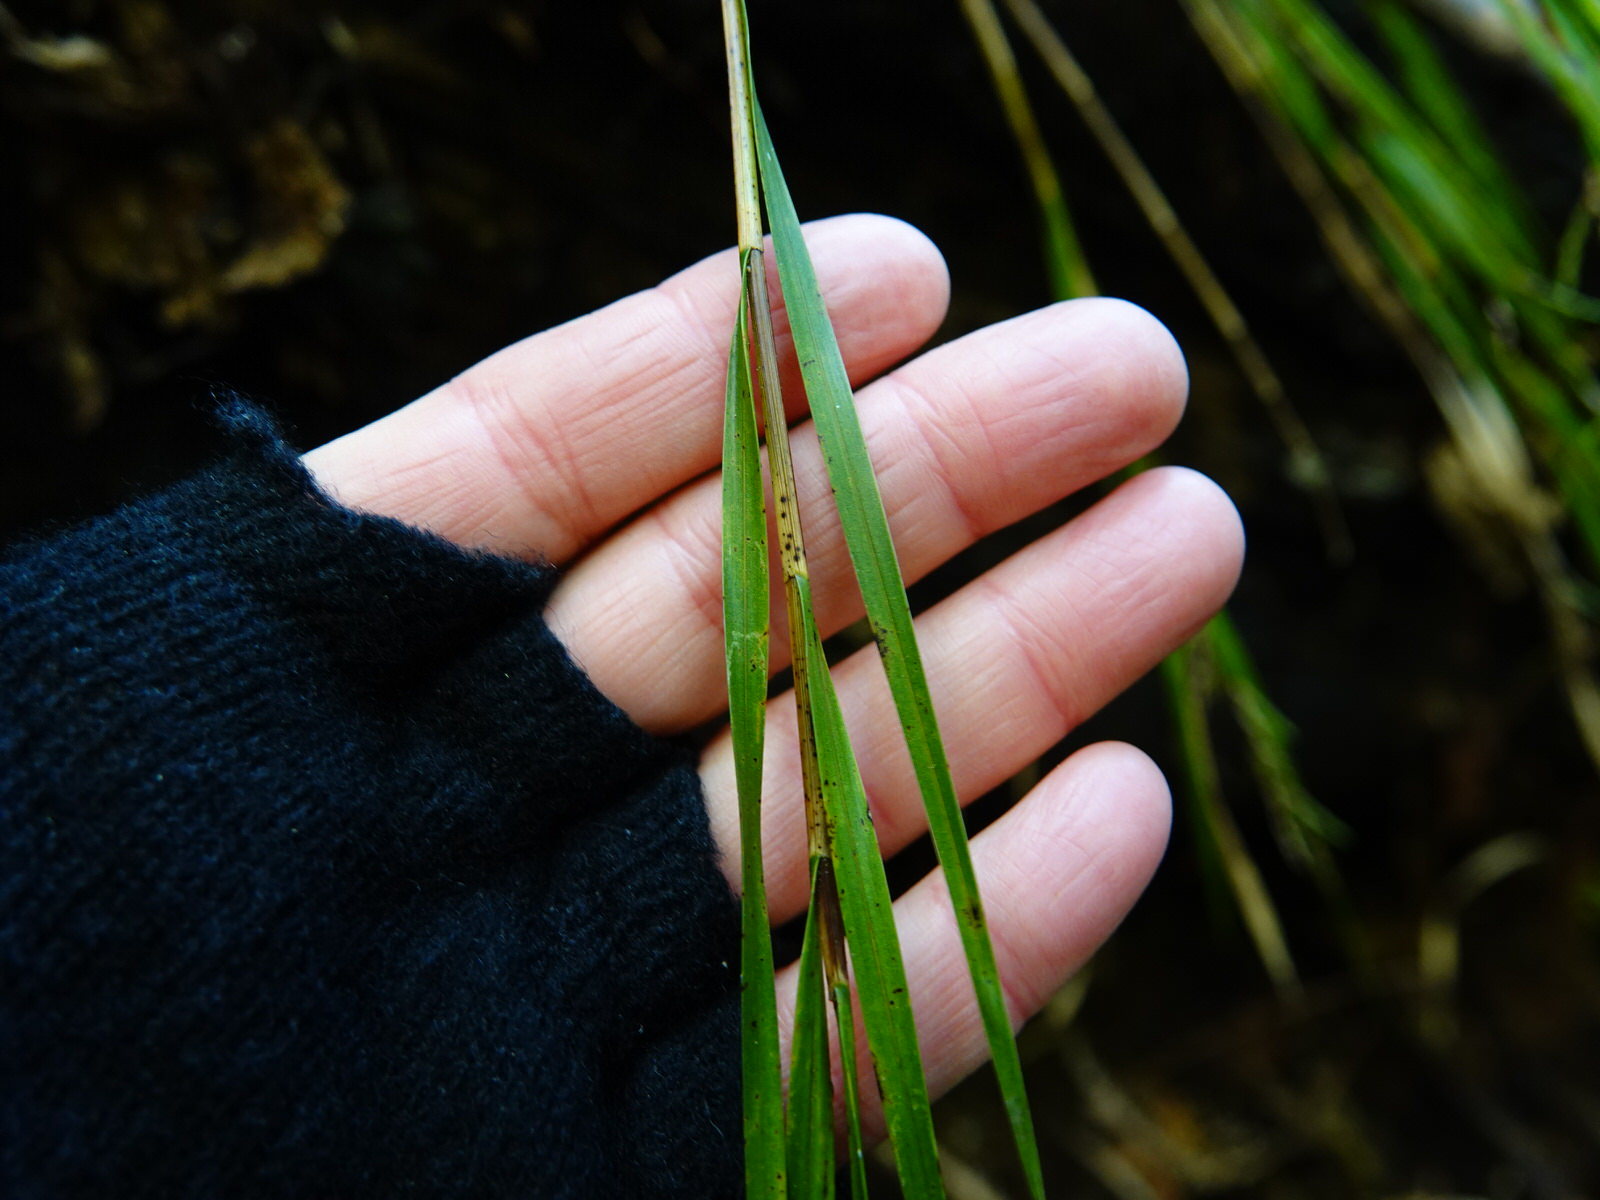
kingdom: Plantae
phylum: Tracheophyta
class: Liliopsida
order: Asparagales
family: Orchidaceae
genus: Earina
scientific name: Earina mucronata
